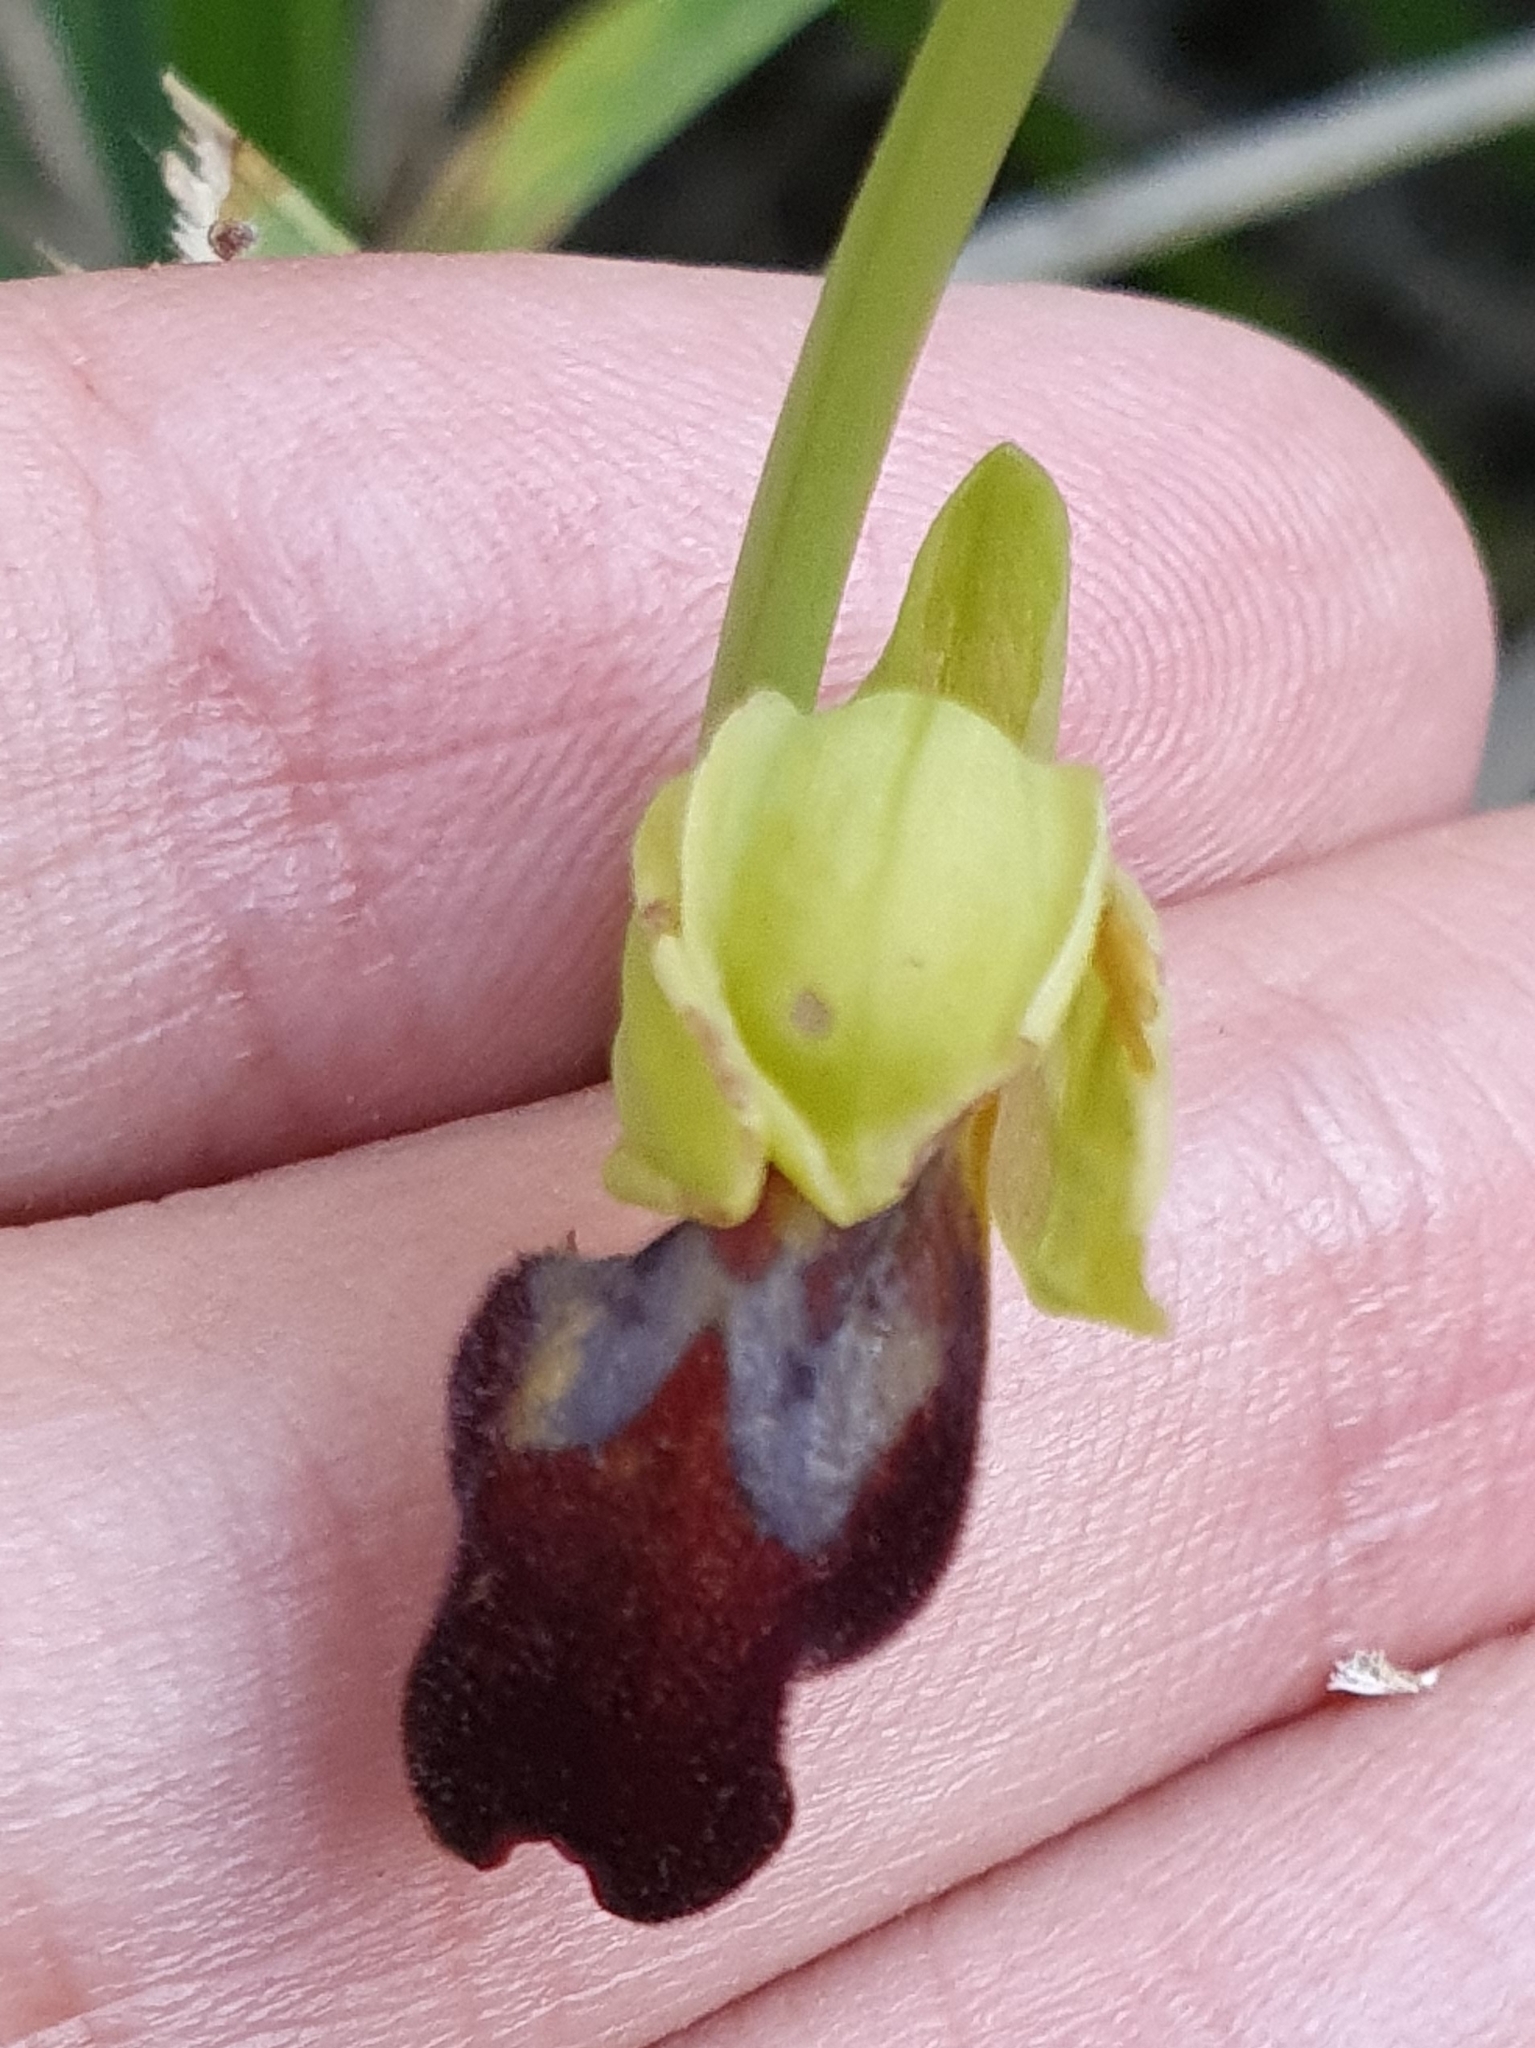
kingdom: Plantae
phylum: Tracheophyta
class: Liliopsida
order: Asparagales
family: Orchidaceae
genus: Ophrys
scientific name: Ophrys fusca
